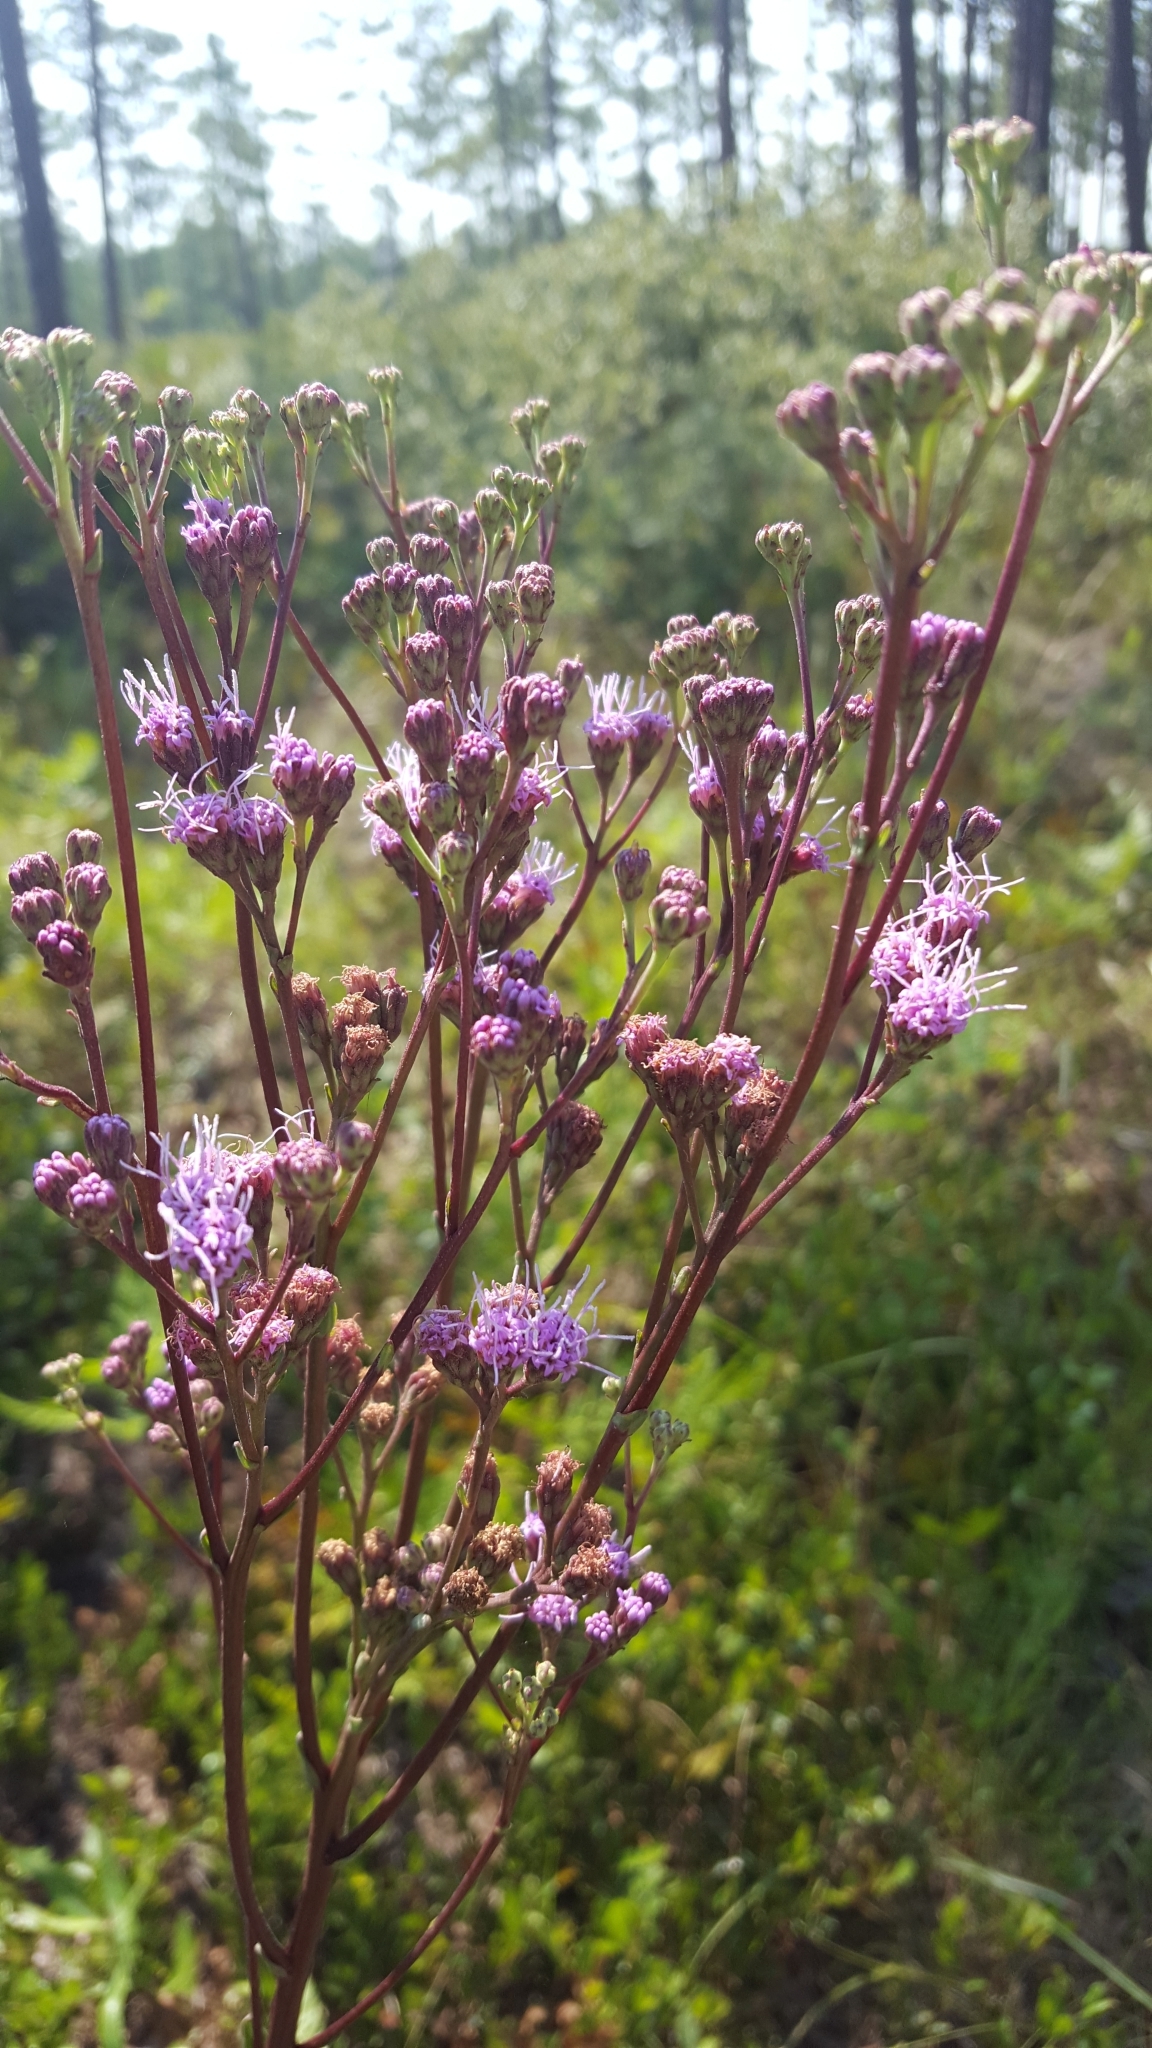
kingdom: Plantae
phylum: Tracheophyta
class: Magnoliopsida
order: Asterales
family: Asteraceae
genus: Carphephorus
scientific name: Carphephorus odoratissimus
